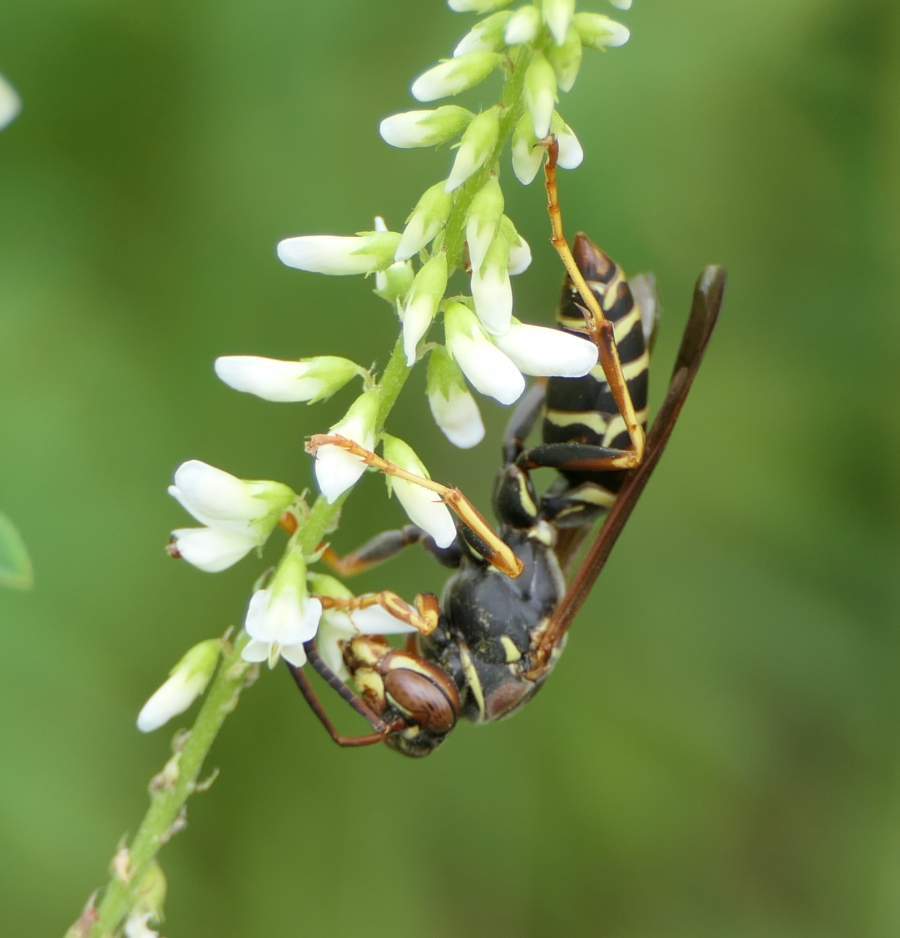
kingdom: Animalia
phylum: Arthropoda
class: Insecta
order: Hymenoptera
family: Eumenidae
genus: Polistes
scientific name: Polistes fuscatus
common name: Dark paper wasp
